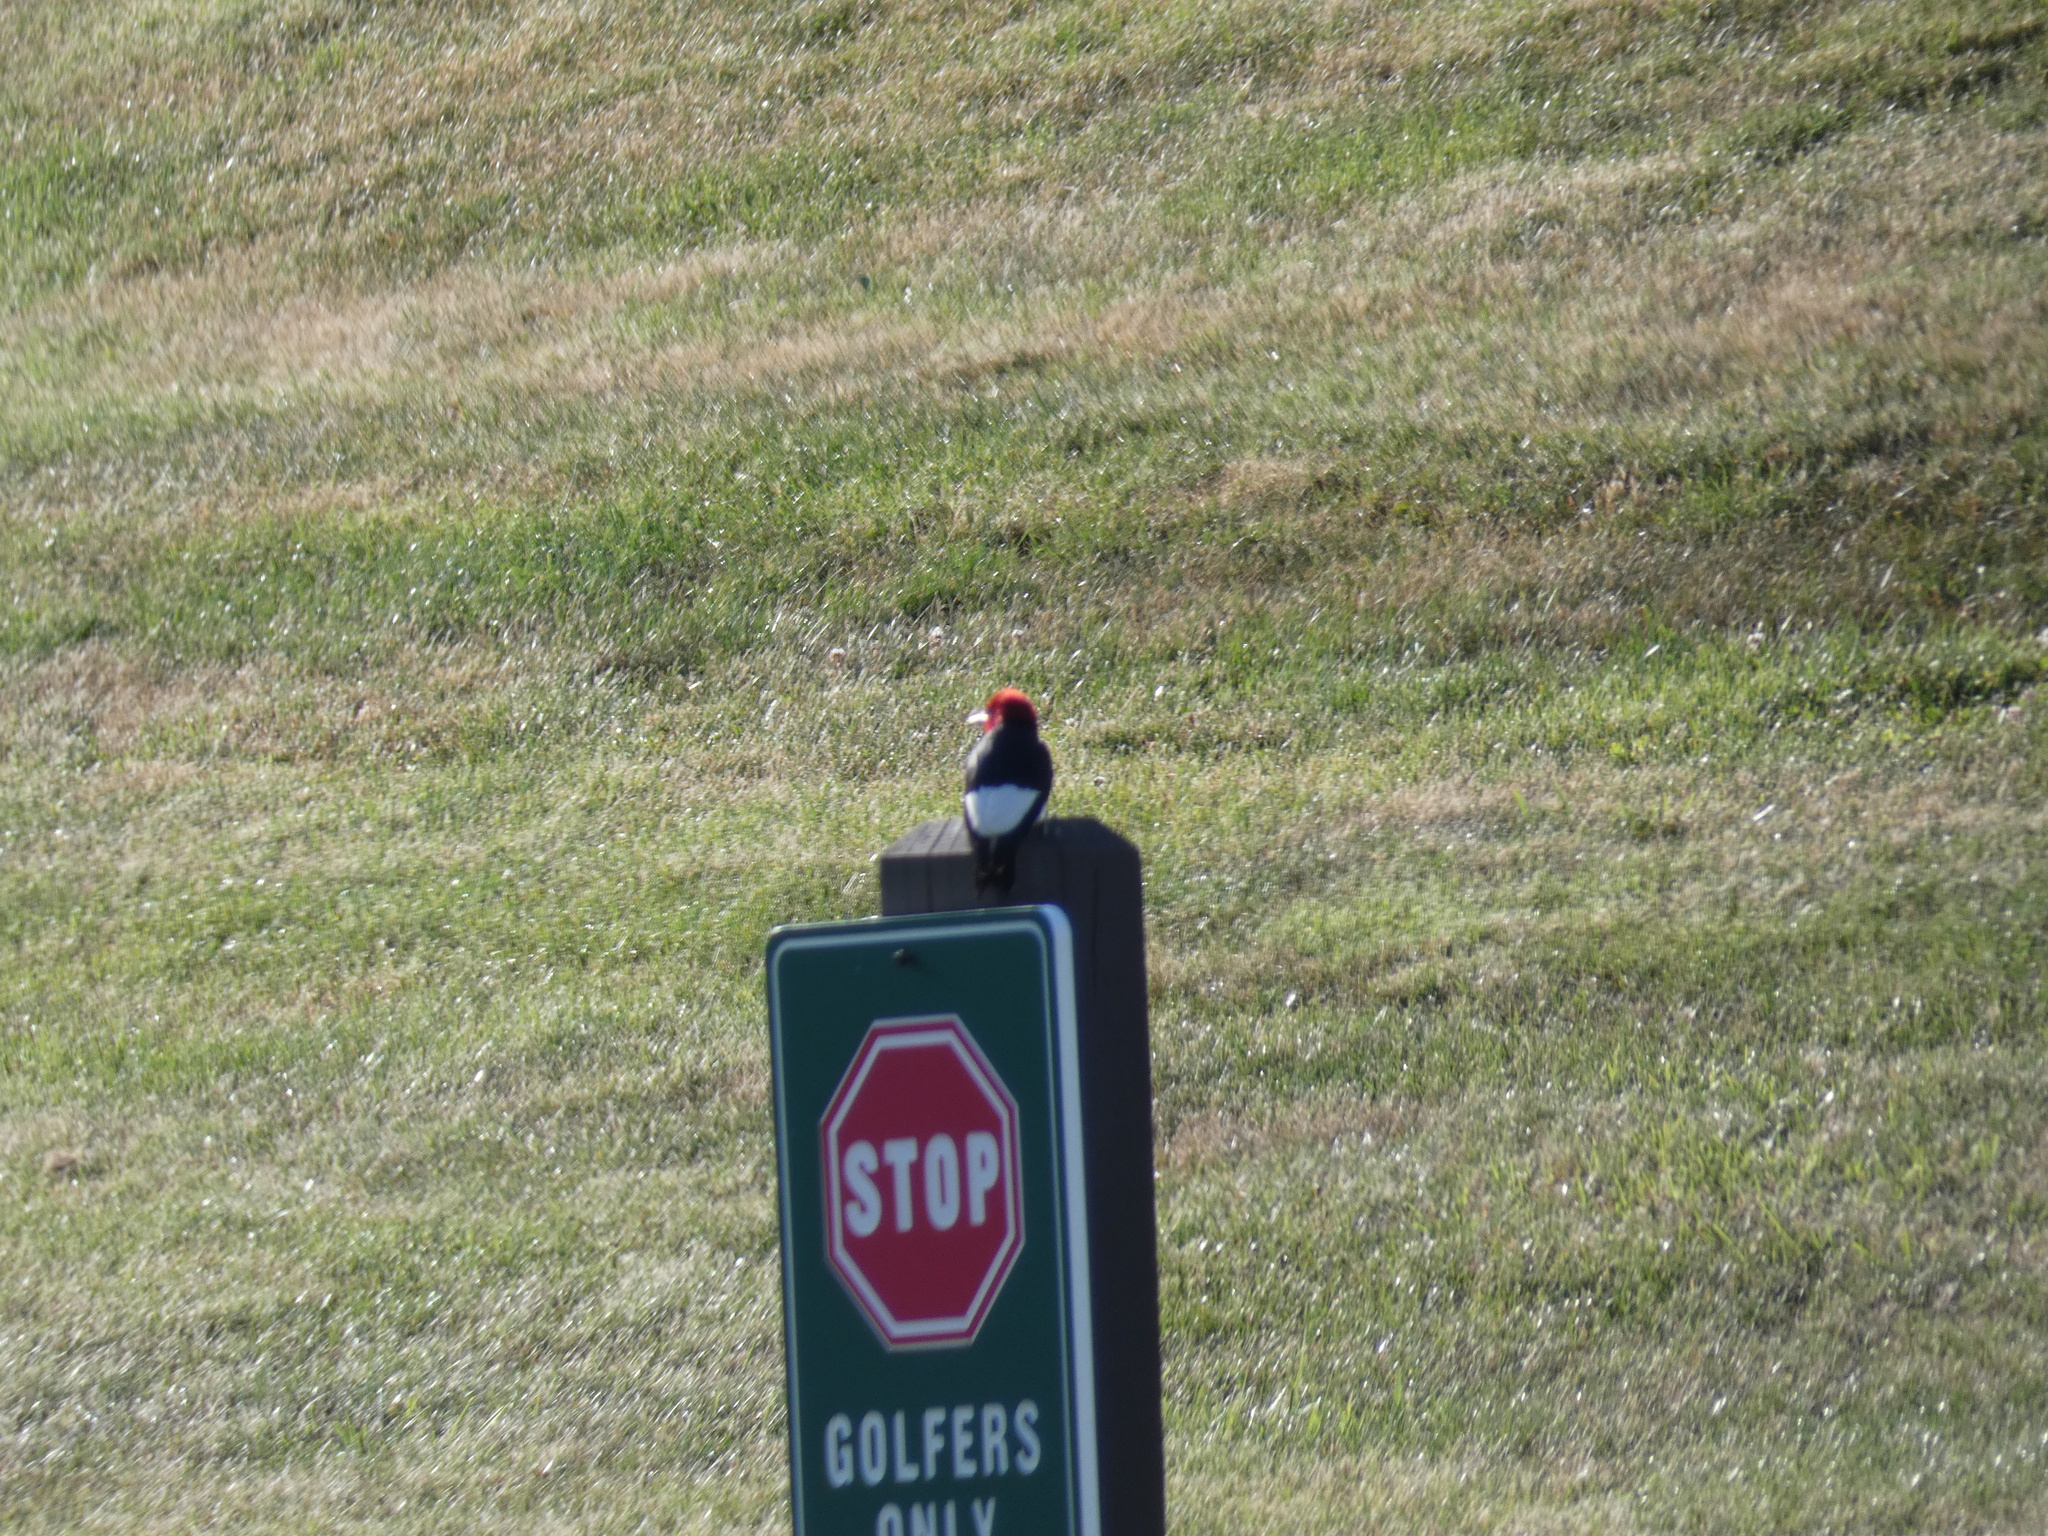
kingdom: Animalia
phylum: Chordata
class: Aves
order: Piciformes
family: Picidae
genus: Melanerpes
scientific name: Melanerpes erythrocephalus
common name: Red-headed woodpecker
